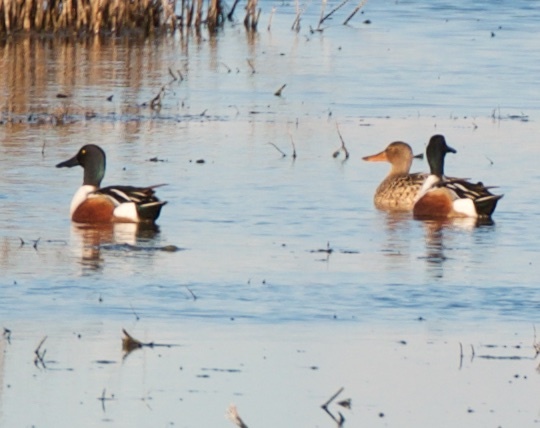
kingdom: Animalia
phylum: Chordata
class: Aves
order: Anseriformes
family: Anatidae
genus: Spatula
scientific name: Spatula clypeata
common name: Northern shoveler
